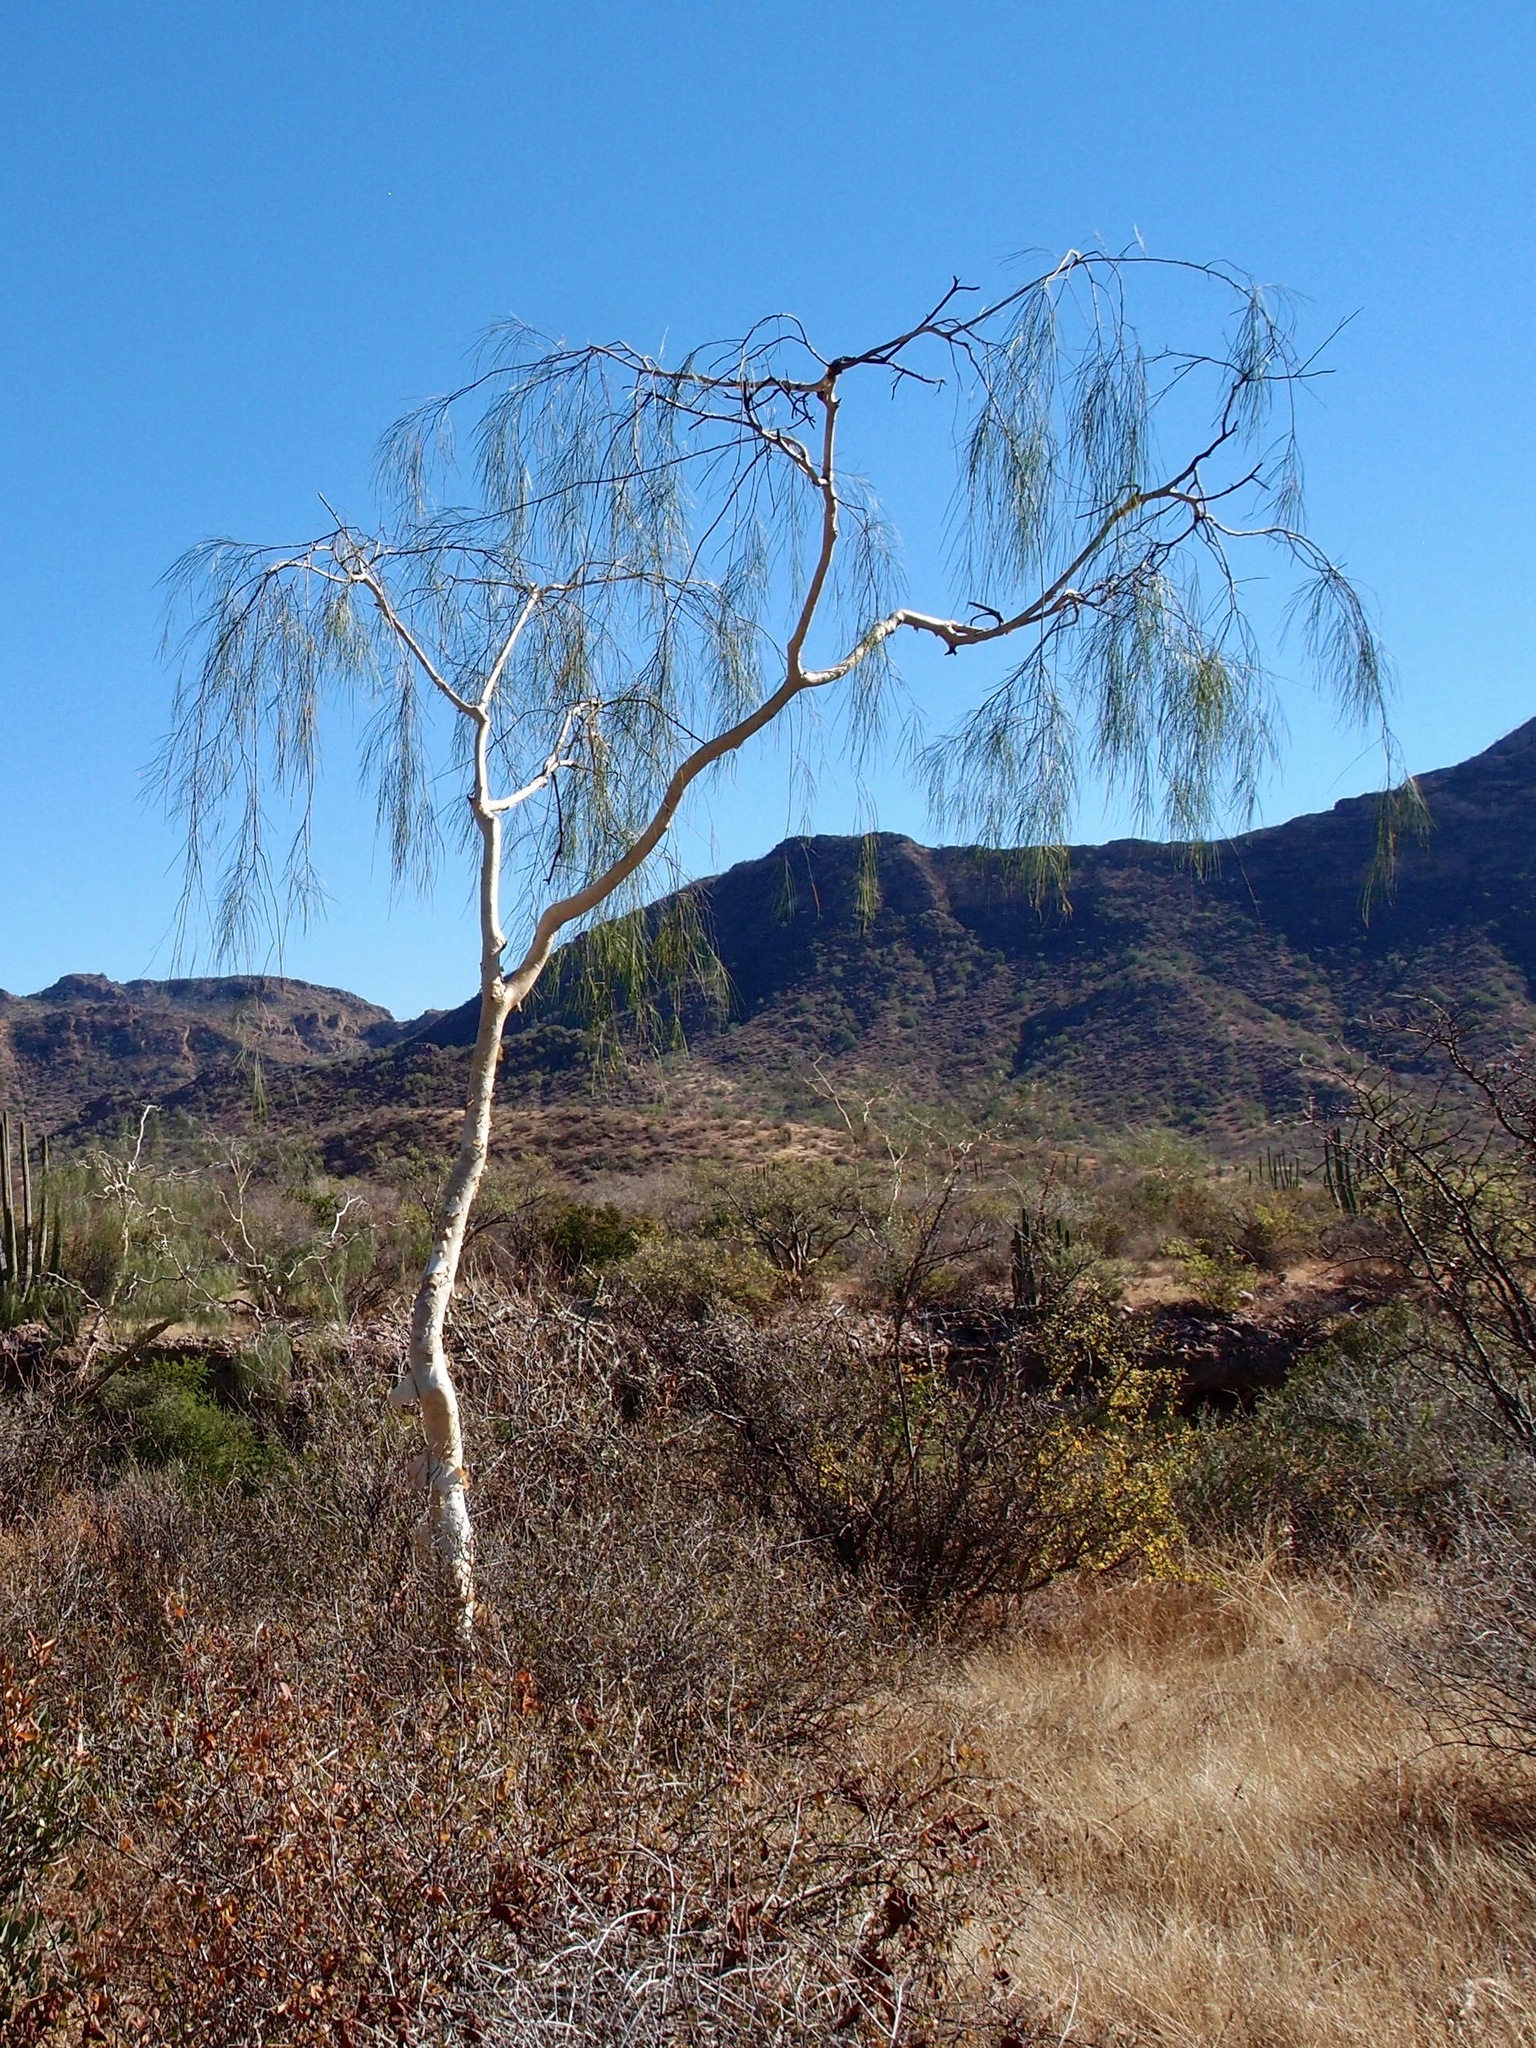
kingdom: Plantae
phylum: Tracheophyta
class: Magnoliopsida
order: Fabales
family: Fabaceae
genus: Mariosousa
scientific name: Mariosousa heterophylla
